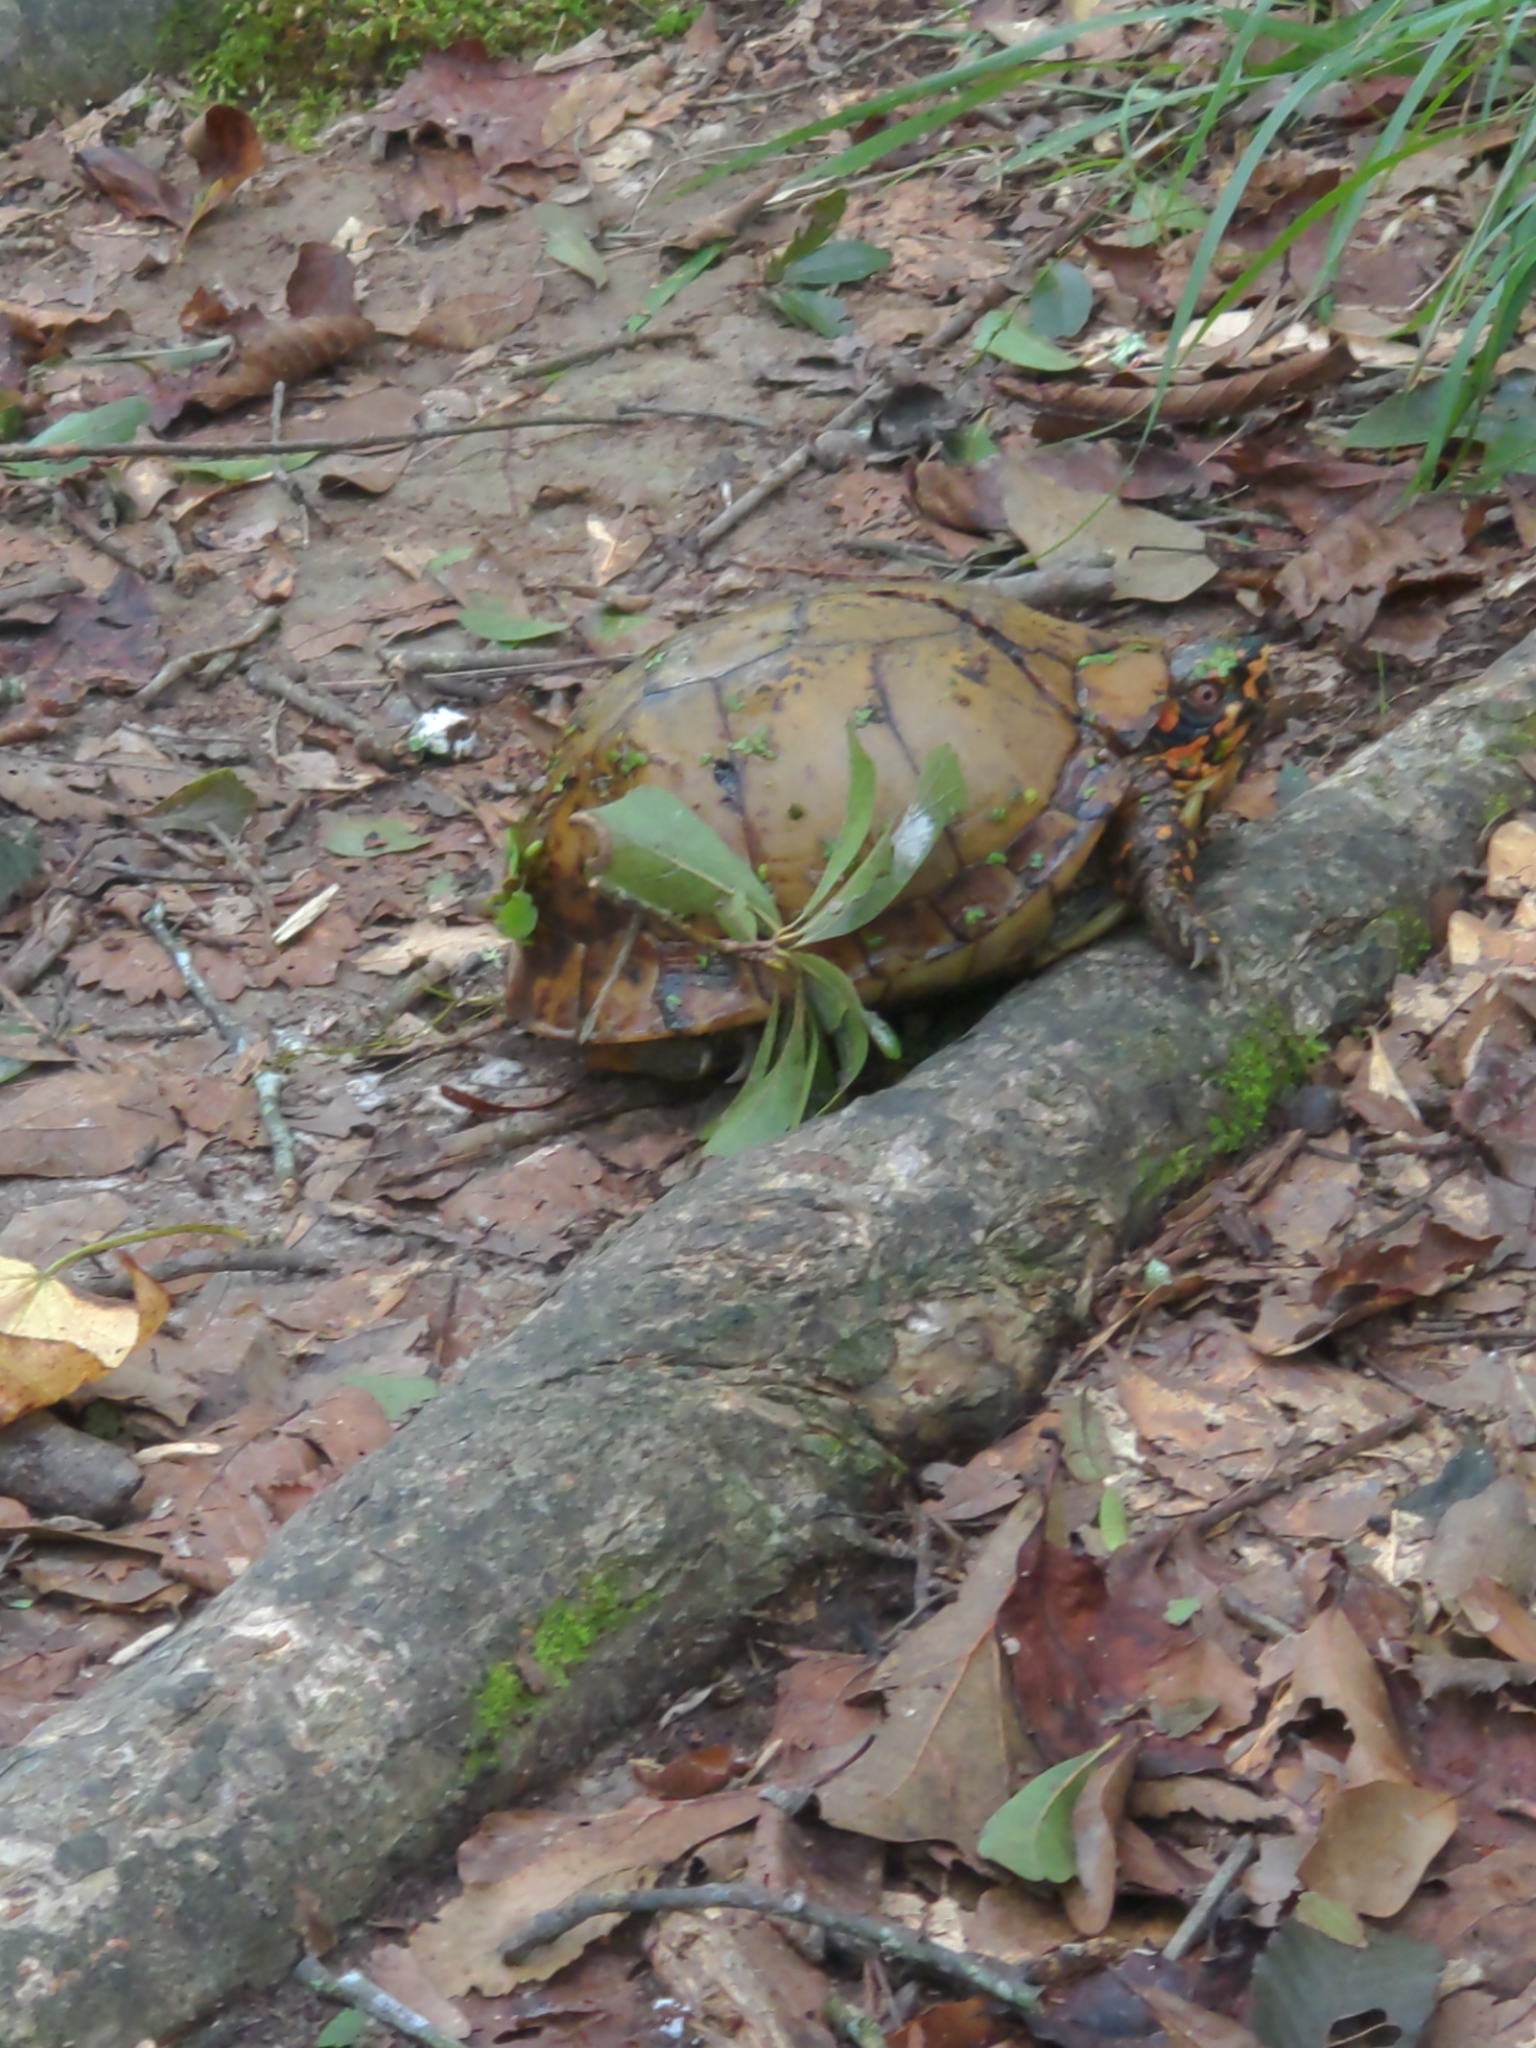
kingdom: Animalia
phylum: Chordata
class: Testudines
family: Emydidae
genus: Terrapene
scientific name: Terrapene carolina
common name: Common box turtle
